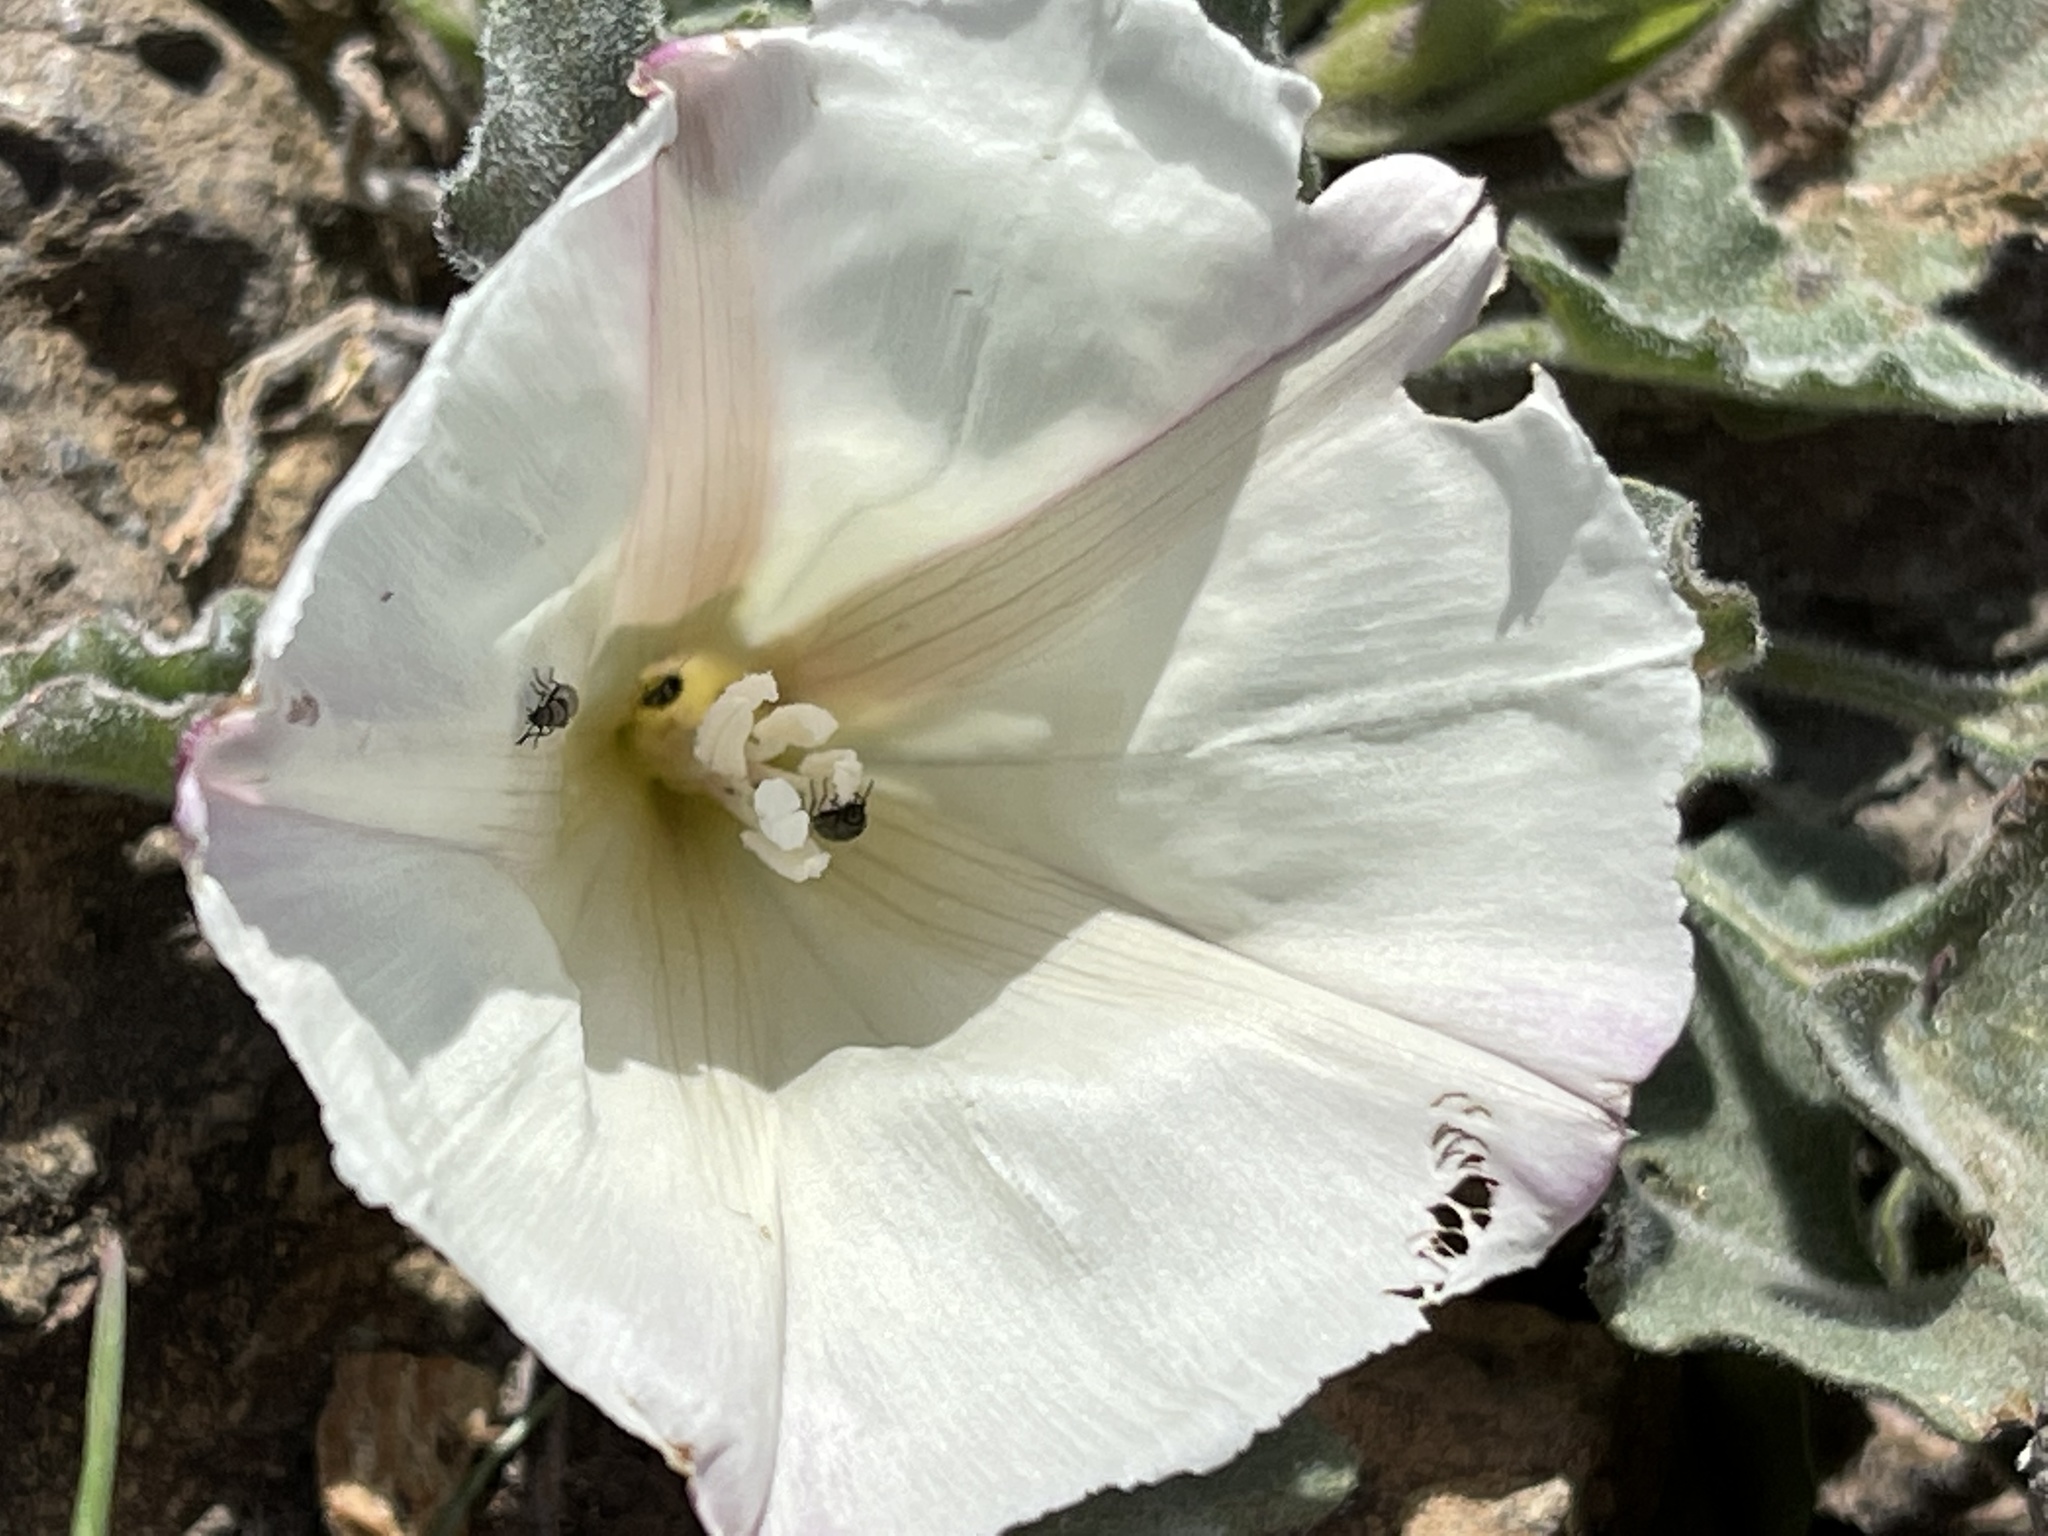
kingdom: Plantae
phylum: Tracheophyta
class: Magnoliopsida
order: Solanales
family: Convolvulaceae
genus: Calystegia
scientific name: Calystegia collina
